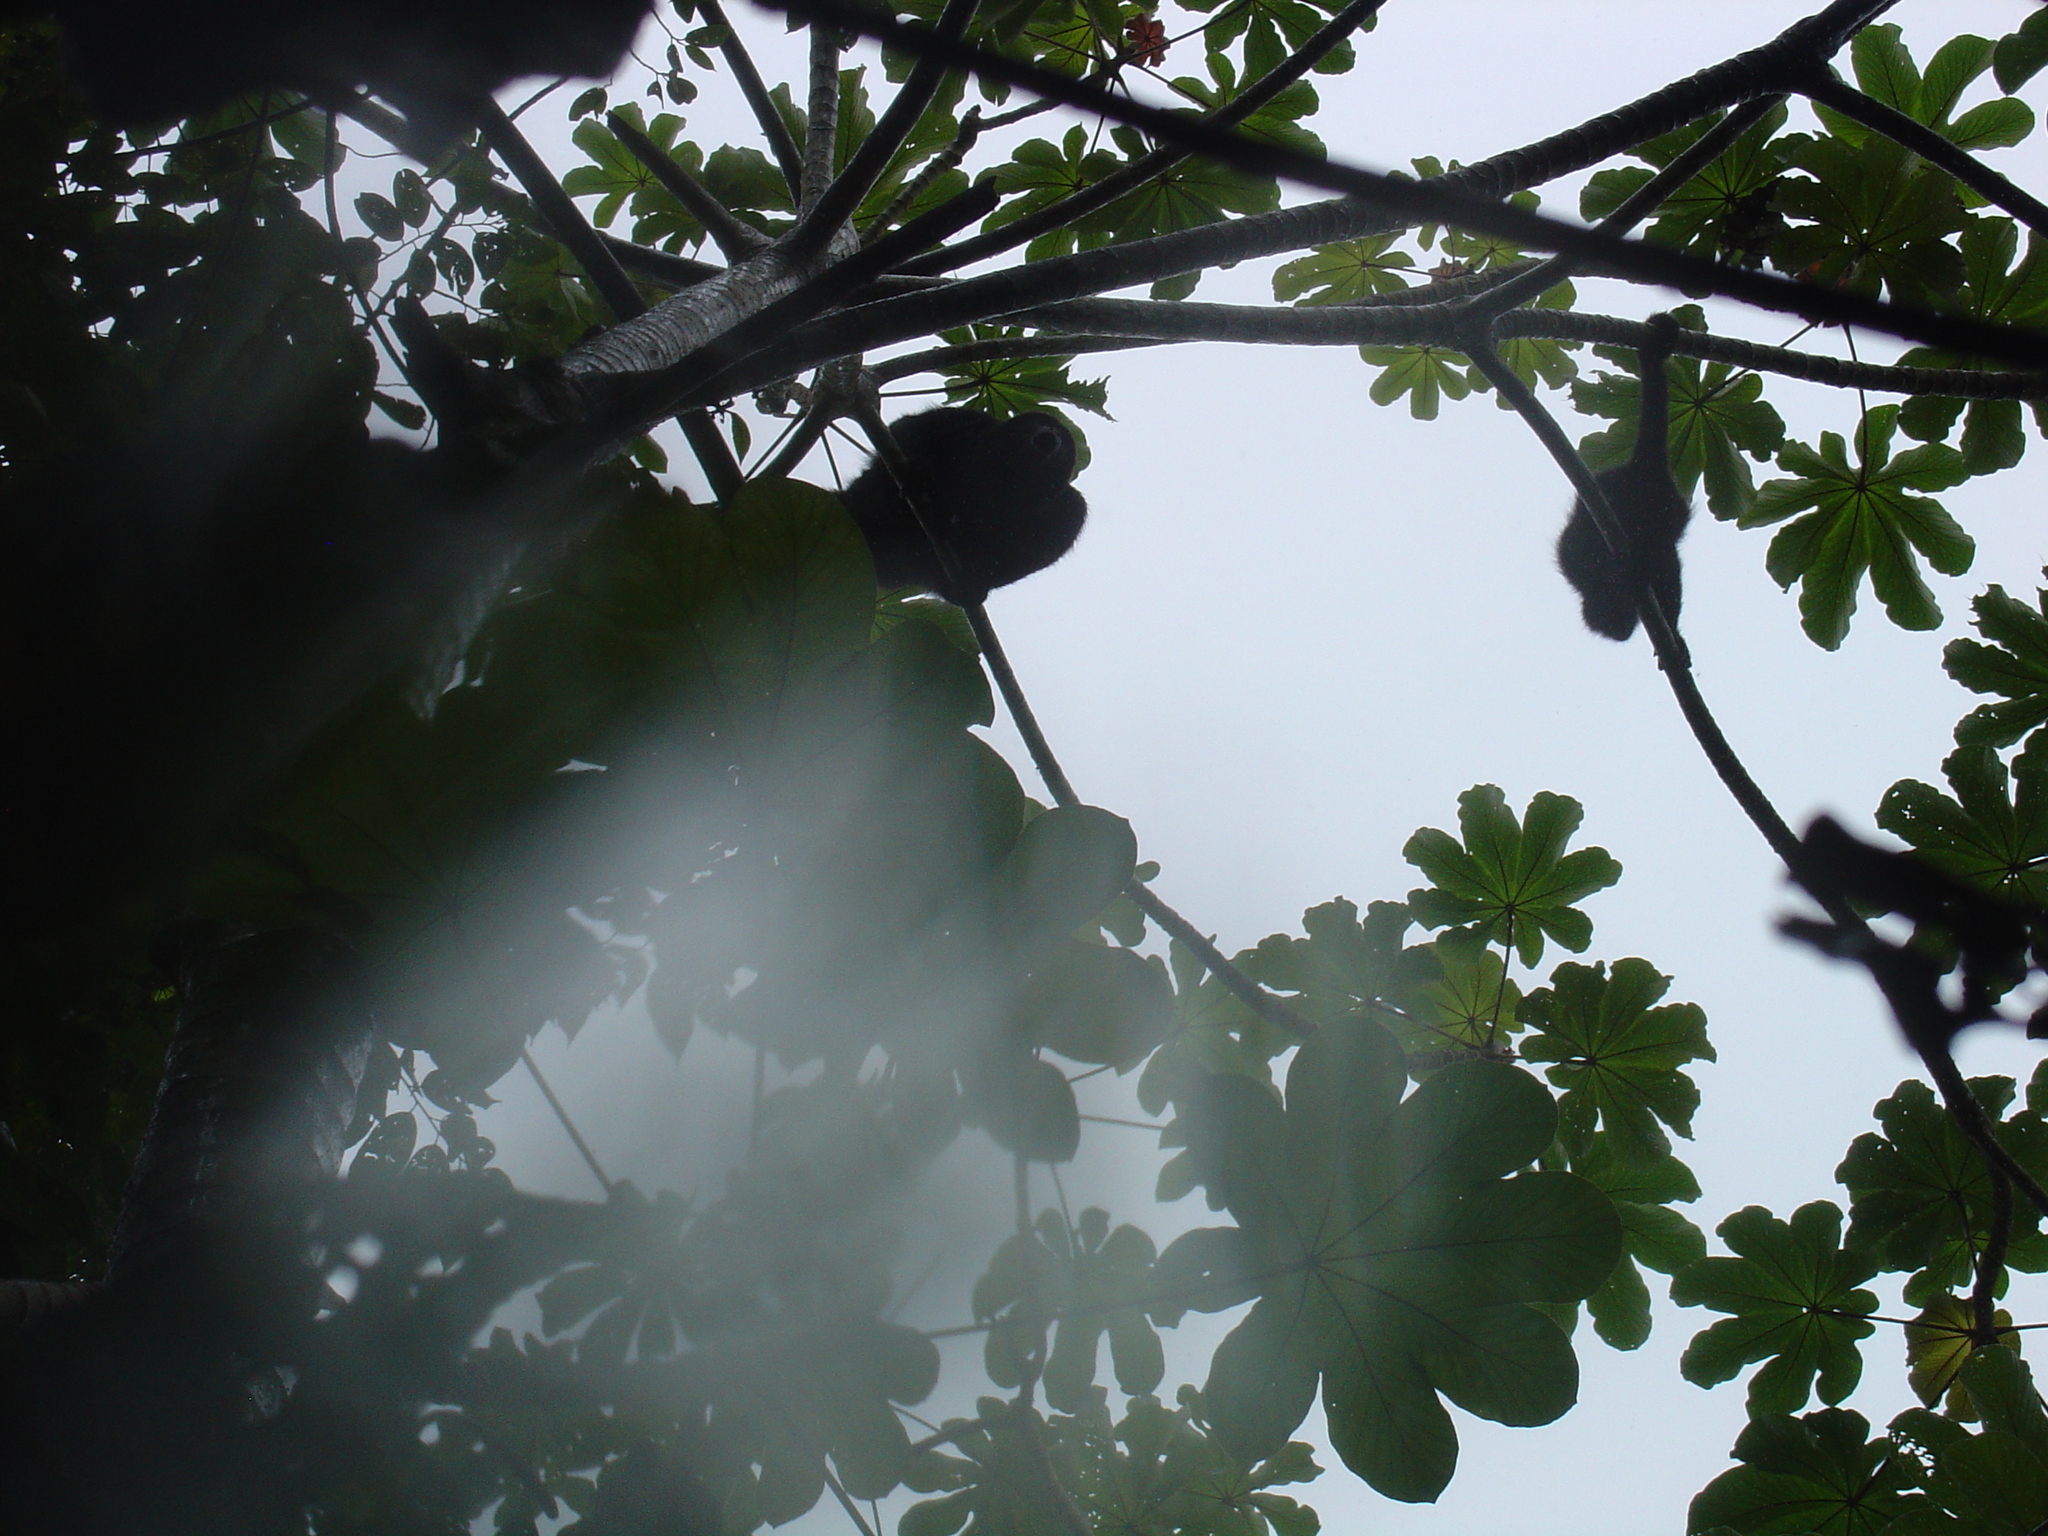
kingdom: Animalia
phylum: Chordata
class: Mammalia
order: Primates
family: Atelidae
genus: Alouatta
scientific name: Alouatta pigra
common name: Guatemalan black howler
